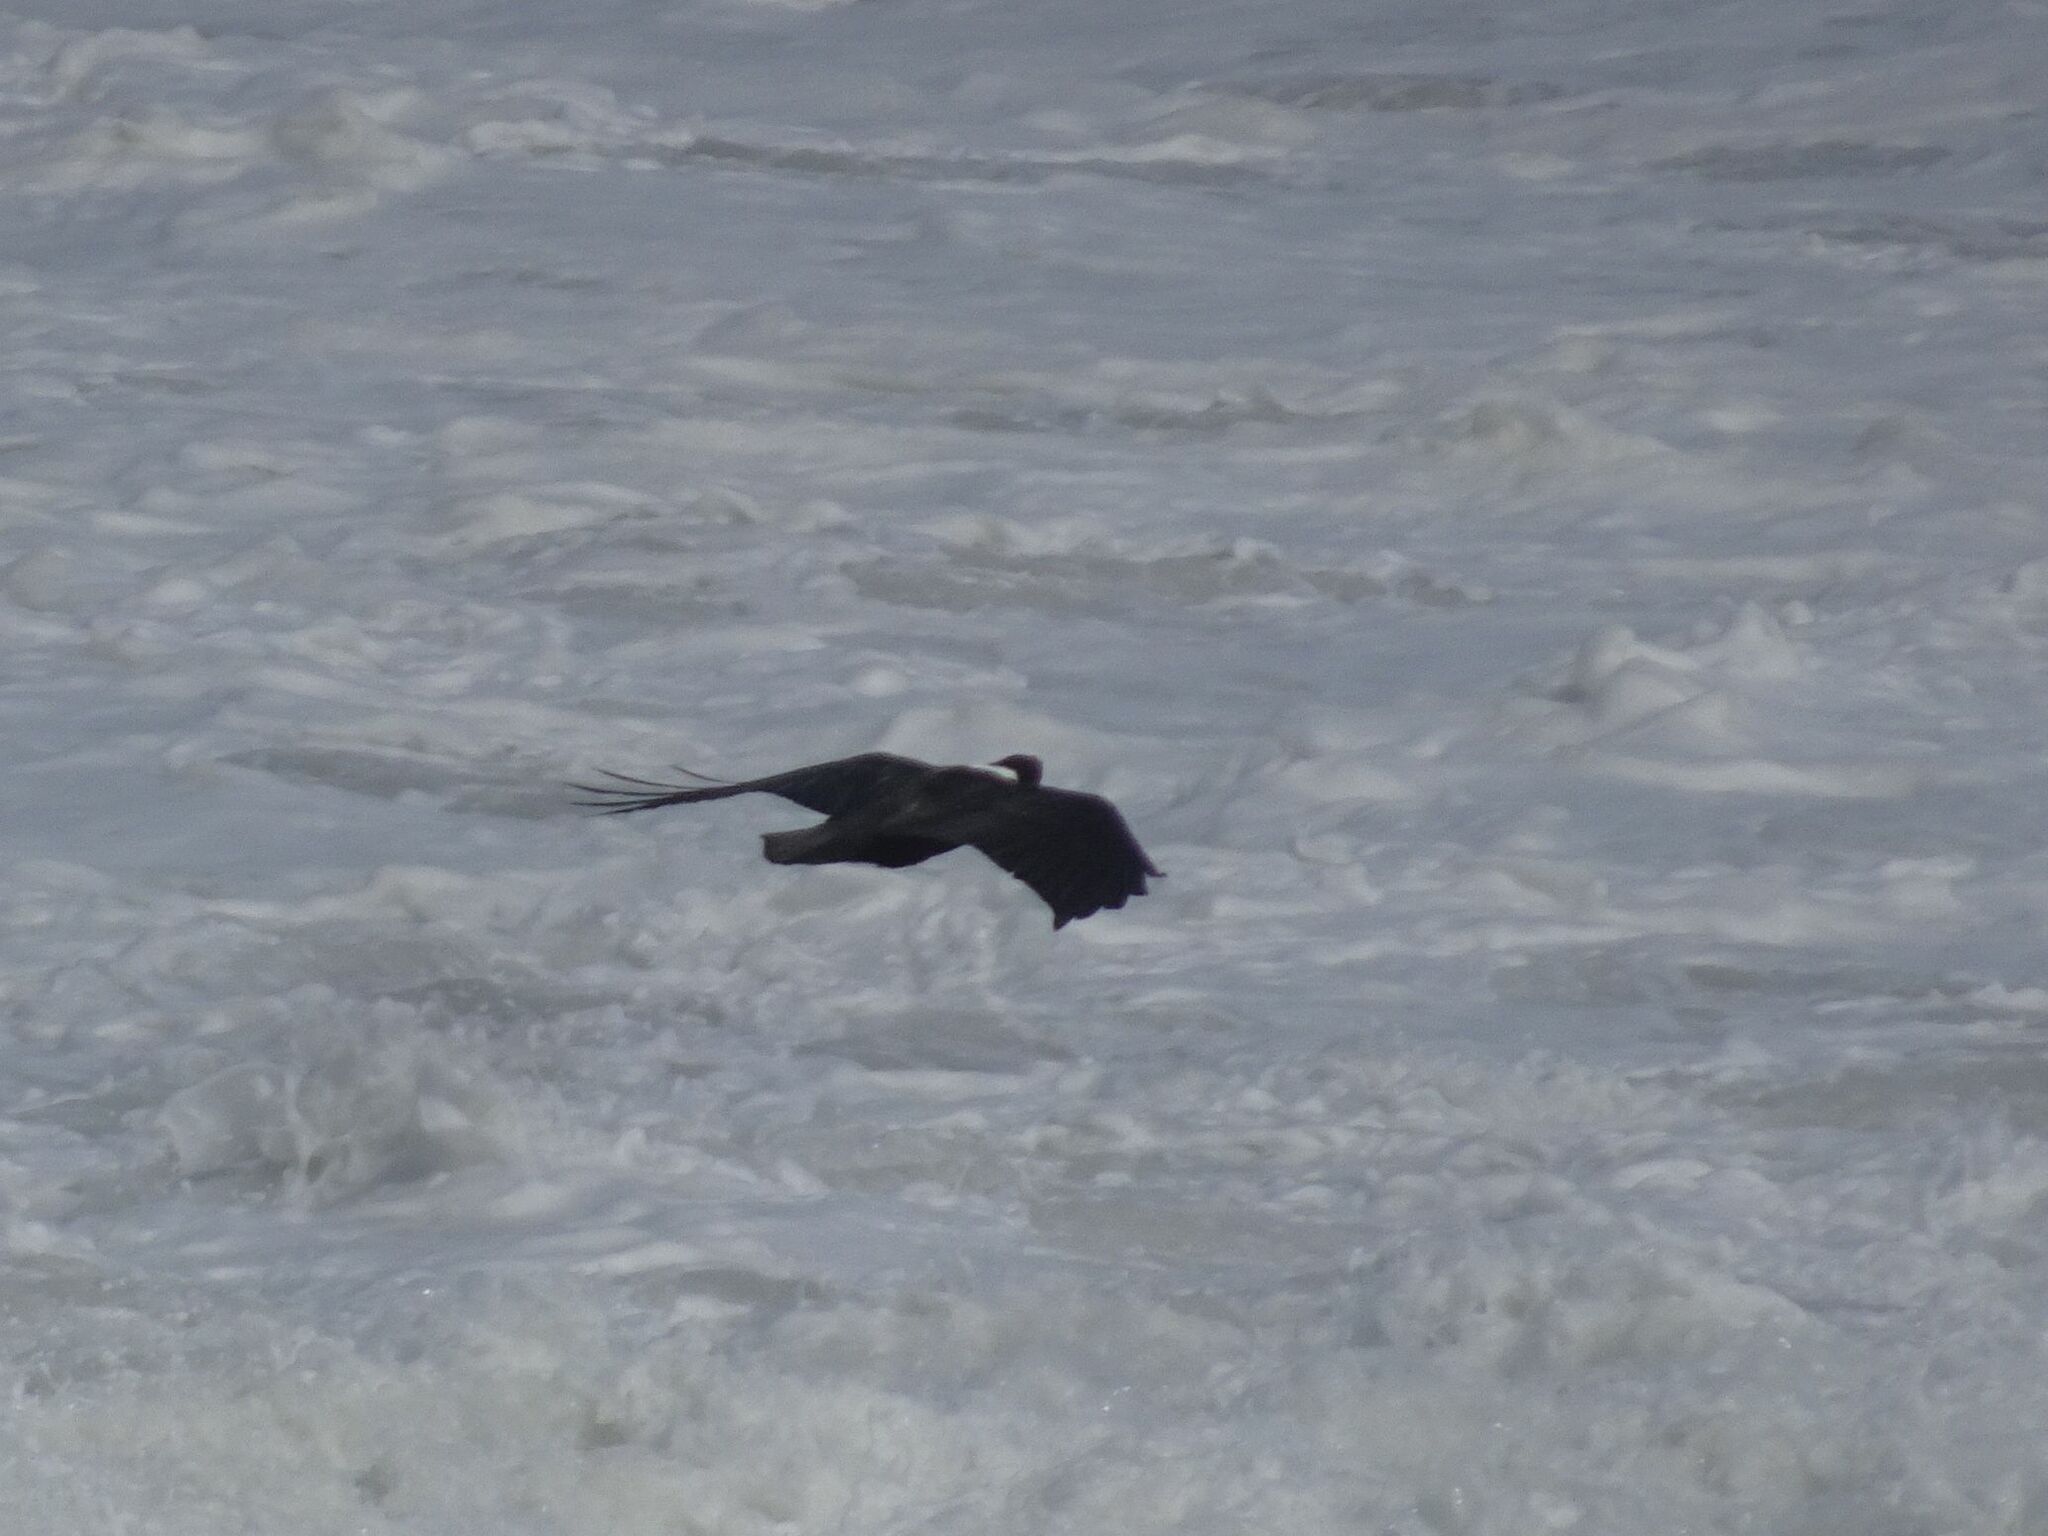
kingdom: Animalia
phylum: Chordata
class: Aves
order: Passeriformes
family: Corvidae
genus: Corvus
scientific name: Corvus albicollis
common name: White-necked raven
